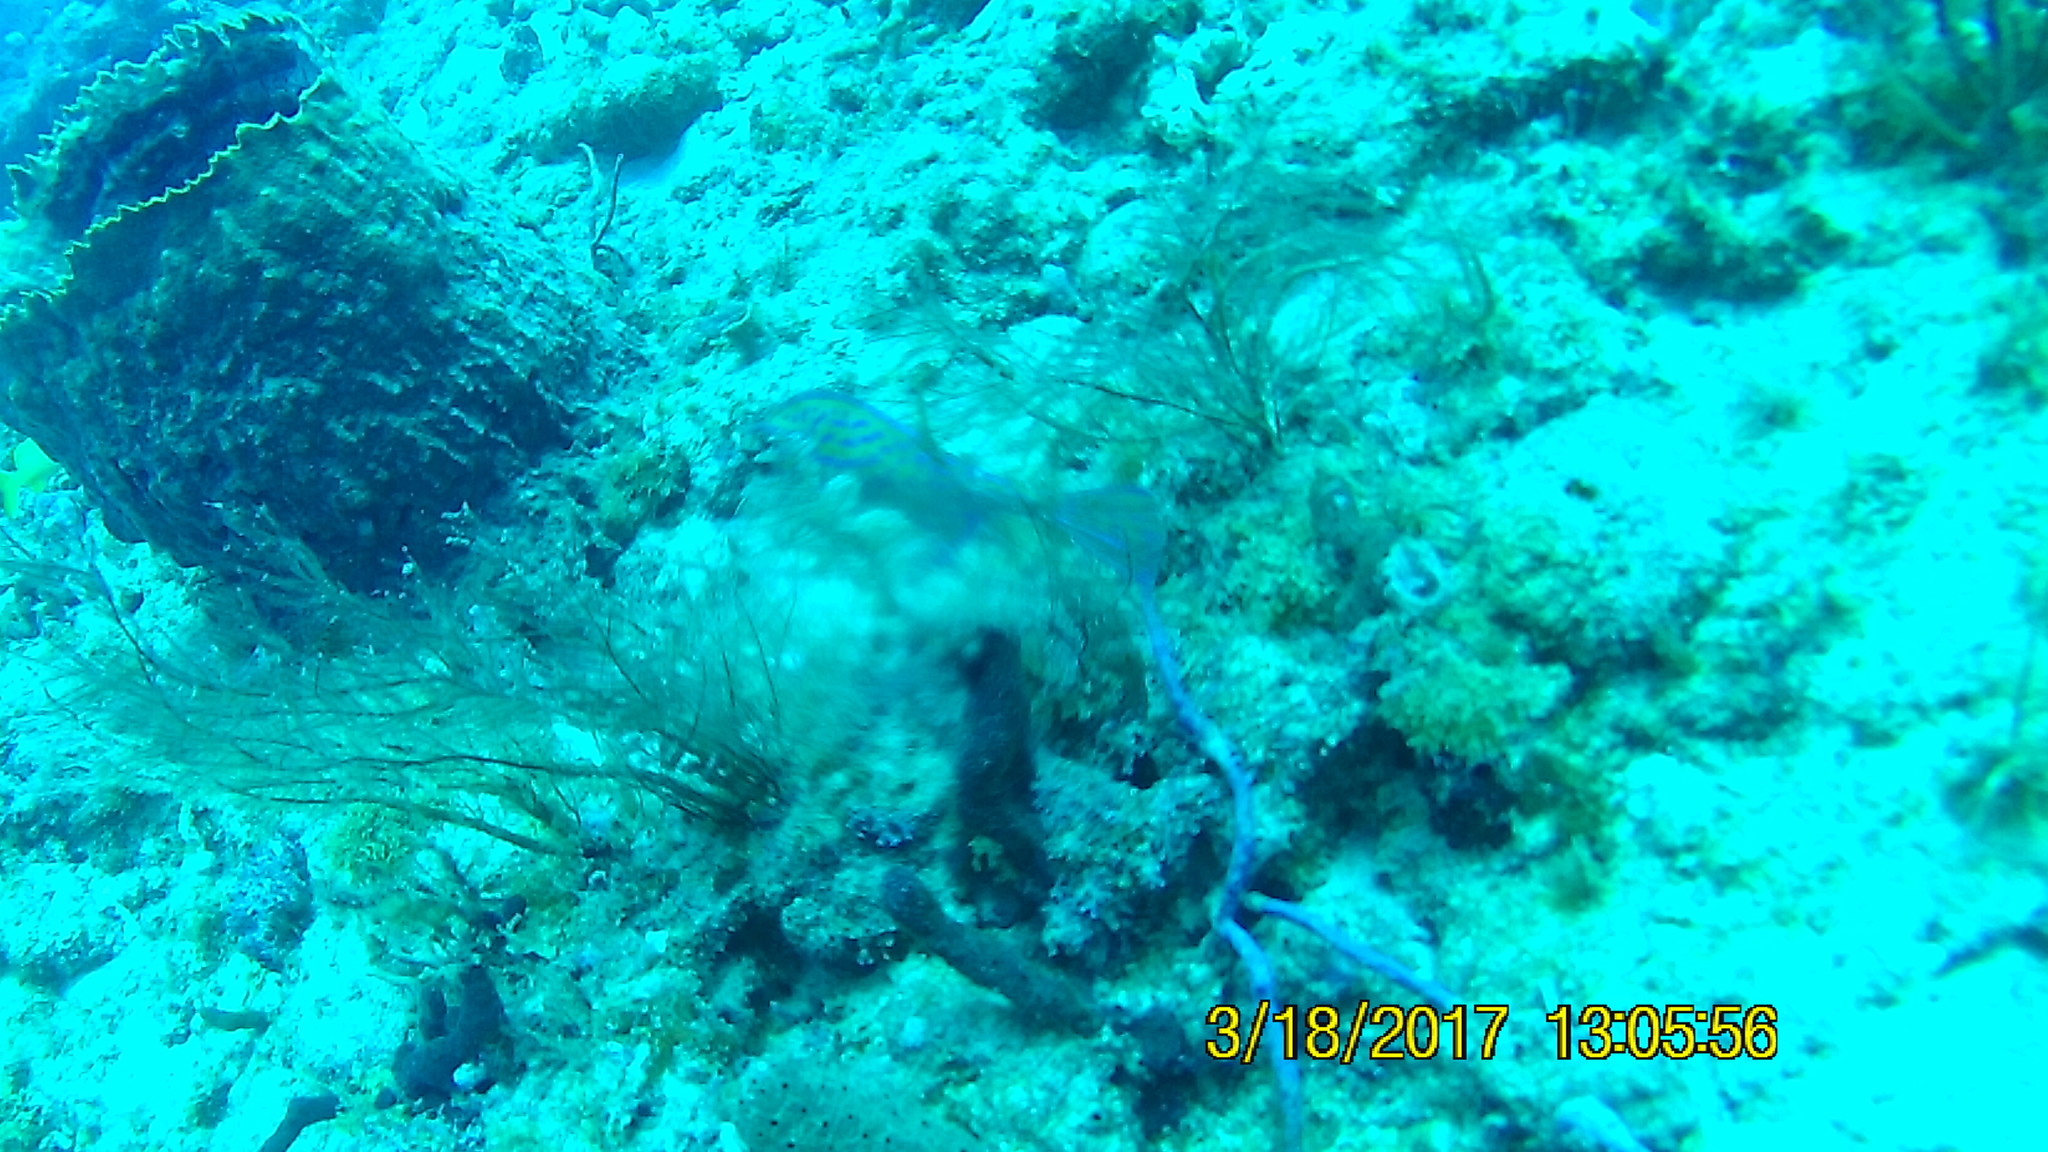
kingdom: Animalia
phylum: Chordata
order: Tetraodontiformes
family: Ostraciidae
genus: Acanthostracion
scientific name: Acanthostracion quadricornis
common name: Scrawled cowfish
